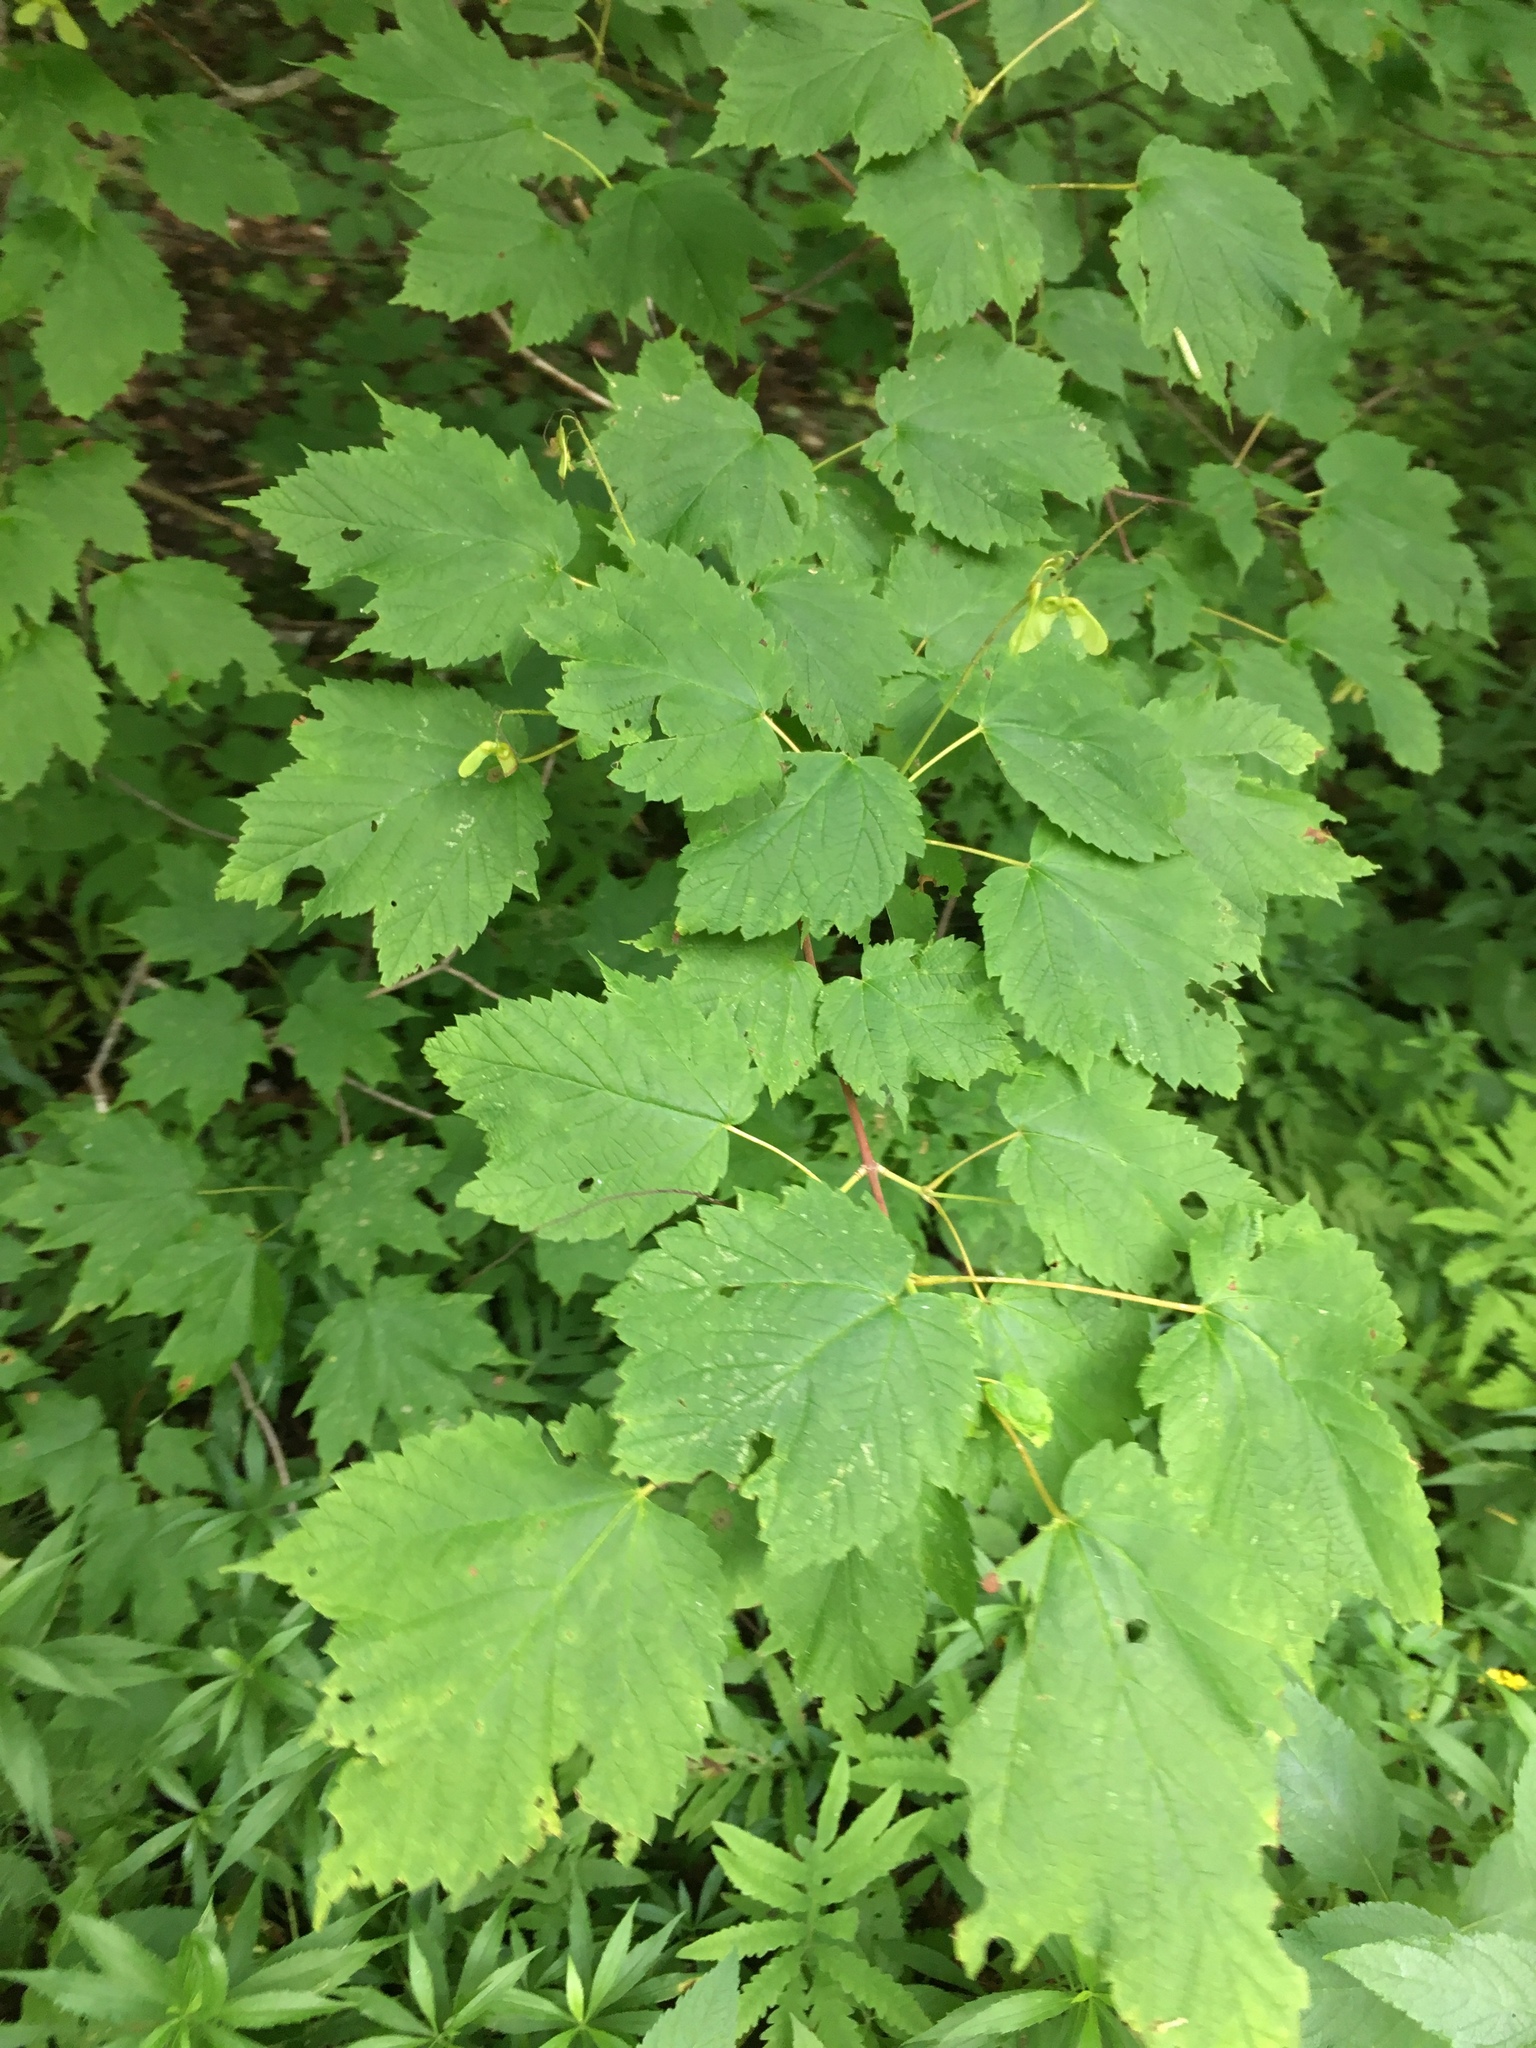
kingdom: Plantae
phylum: Tracheophyta
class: Magnoliopsida
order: Sapindales
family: Sapindaceae
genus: Acer
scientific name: Acer spicatum
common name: Mountain maple
